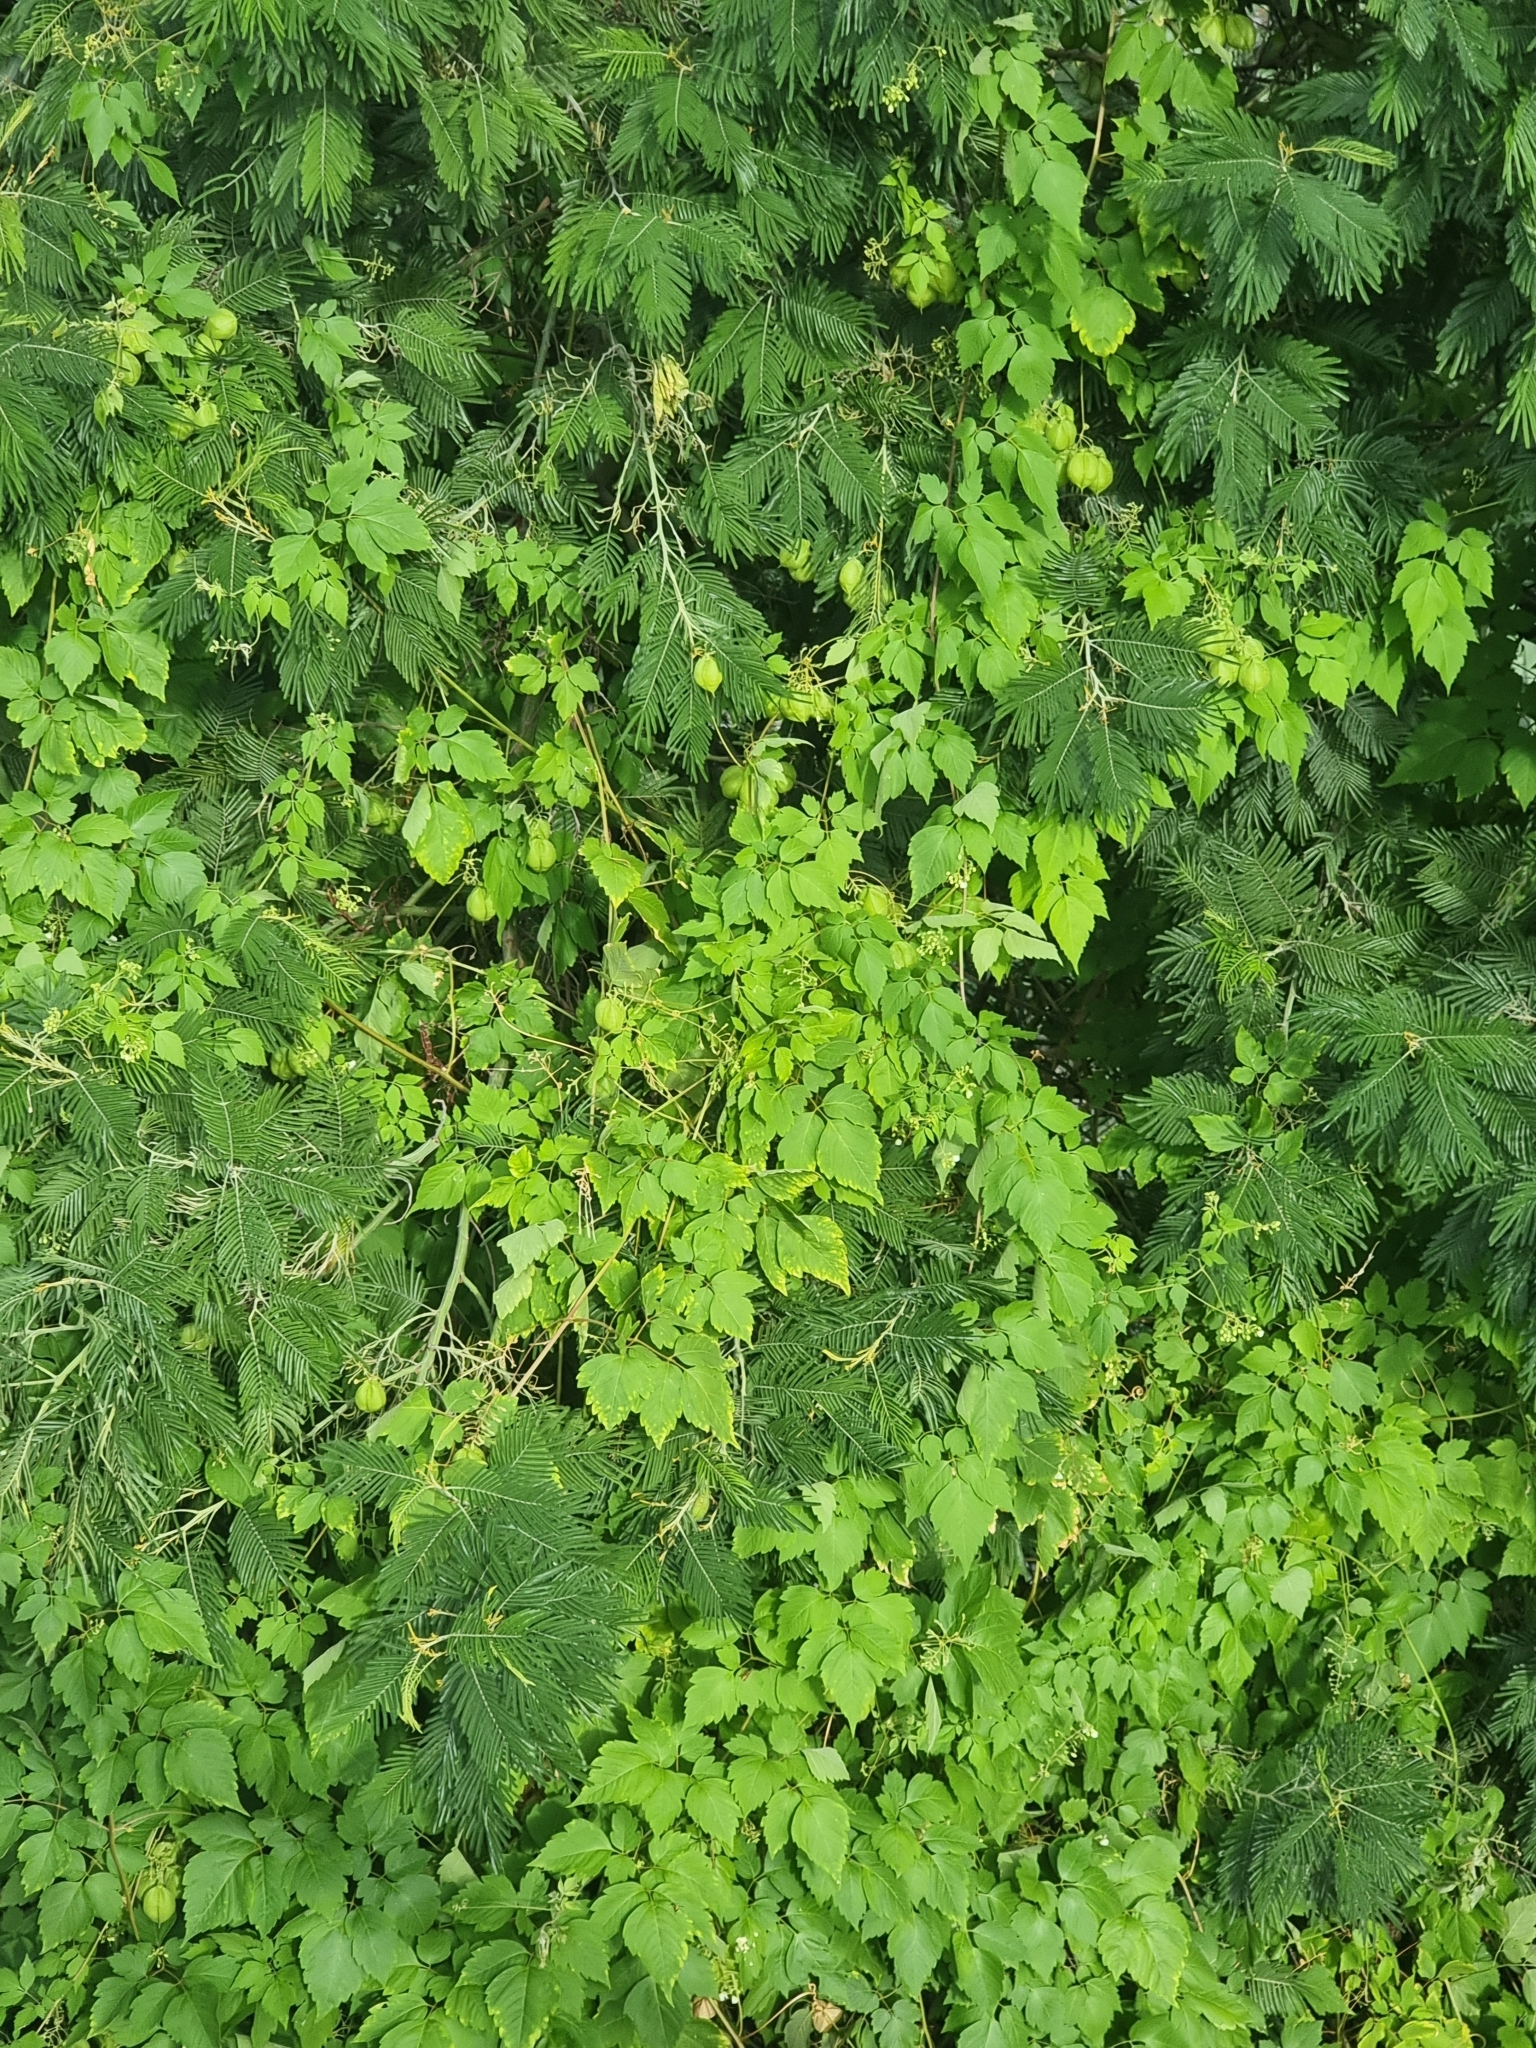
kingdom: Plantae
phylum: Tracheophyta
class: Magnoliopsida
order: Sapindales
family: Sapindaceae
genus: Cardiospermum
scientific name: Cardiospermum grandiflorum
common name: Balloon vine
